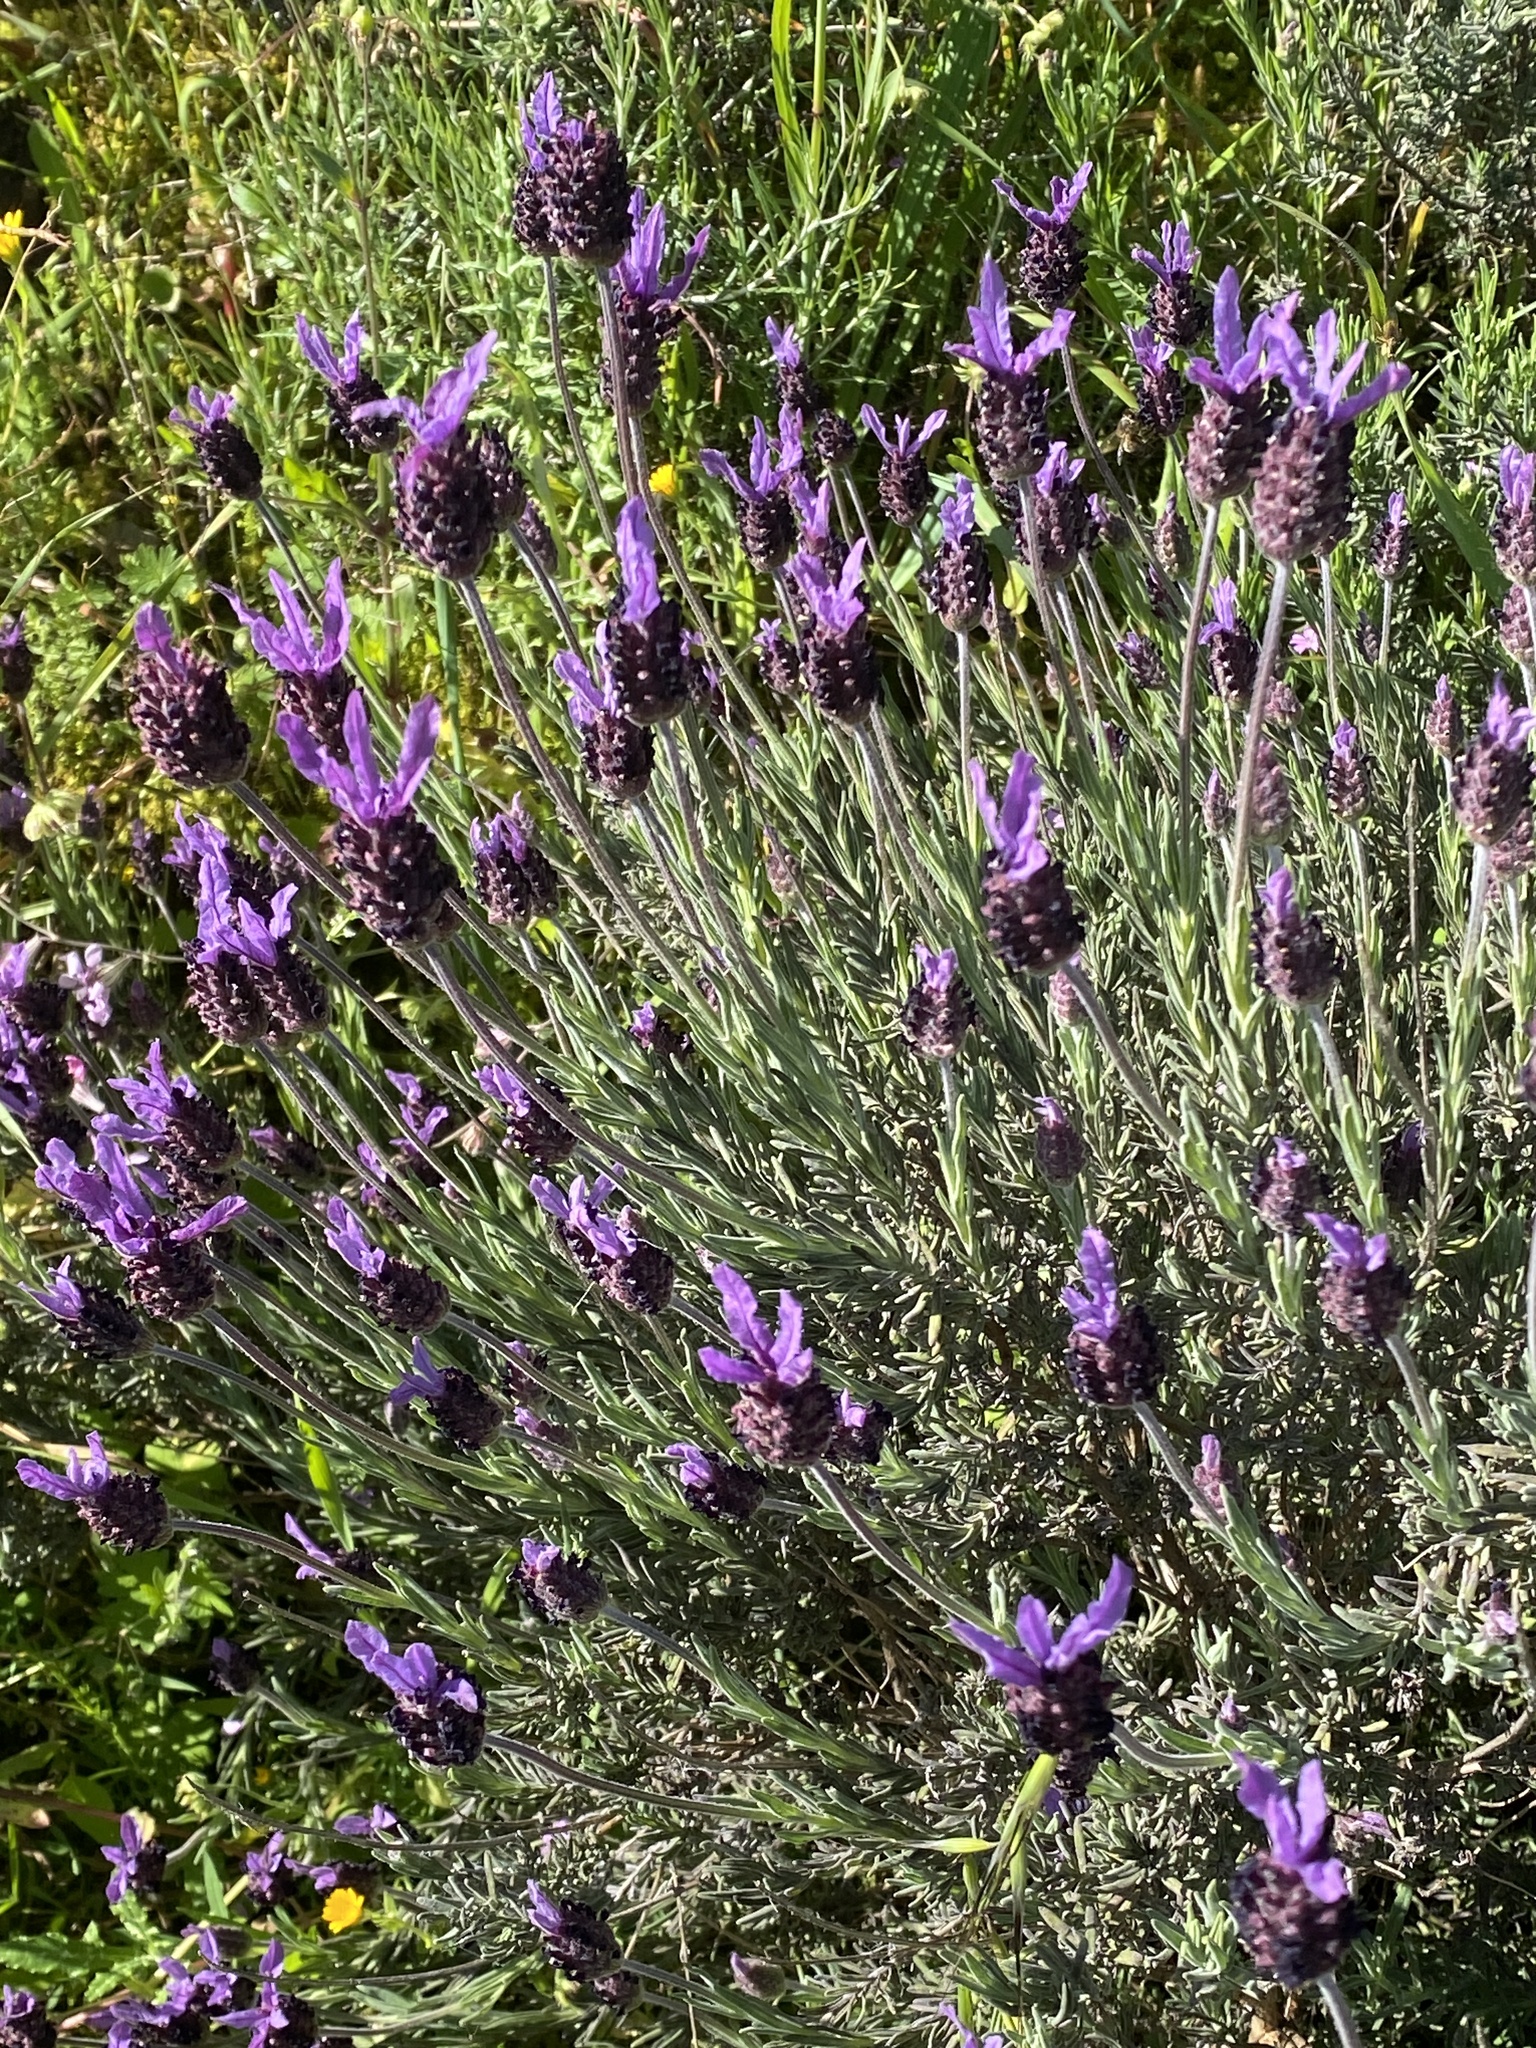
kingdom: Plantae
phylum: Tracheophyta
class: Magnoliopsida
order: Lamiales
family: Lamiaceae
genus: Lavandula
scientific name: Lavandula pedunculata
